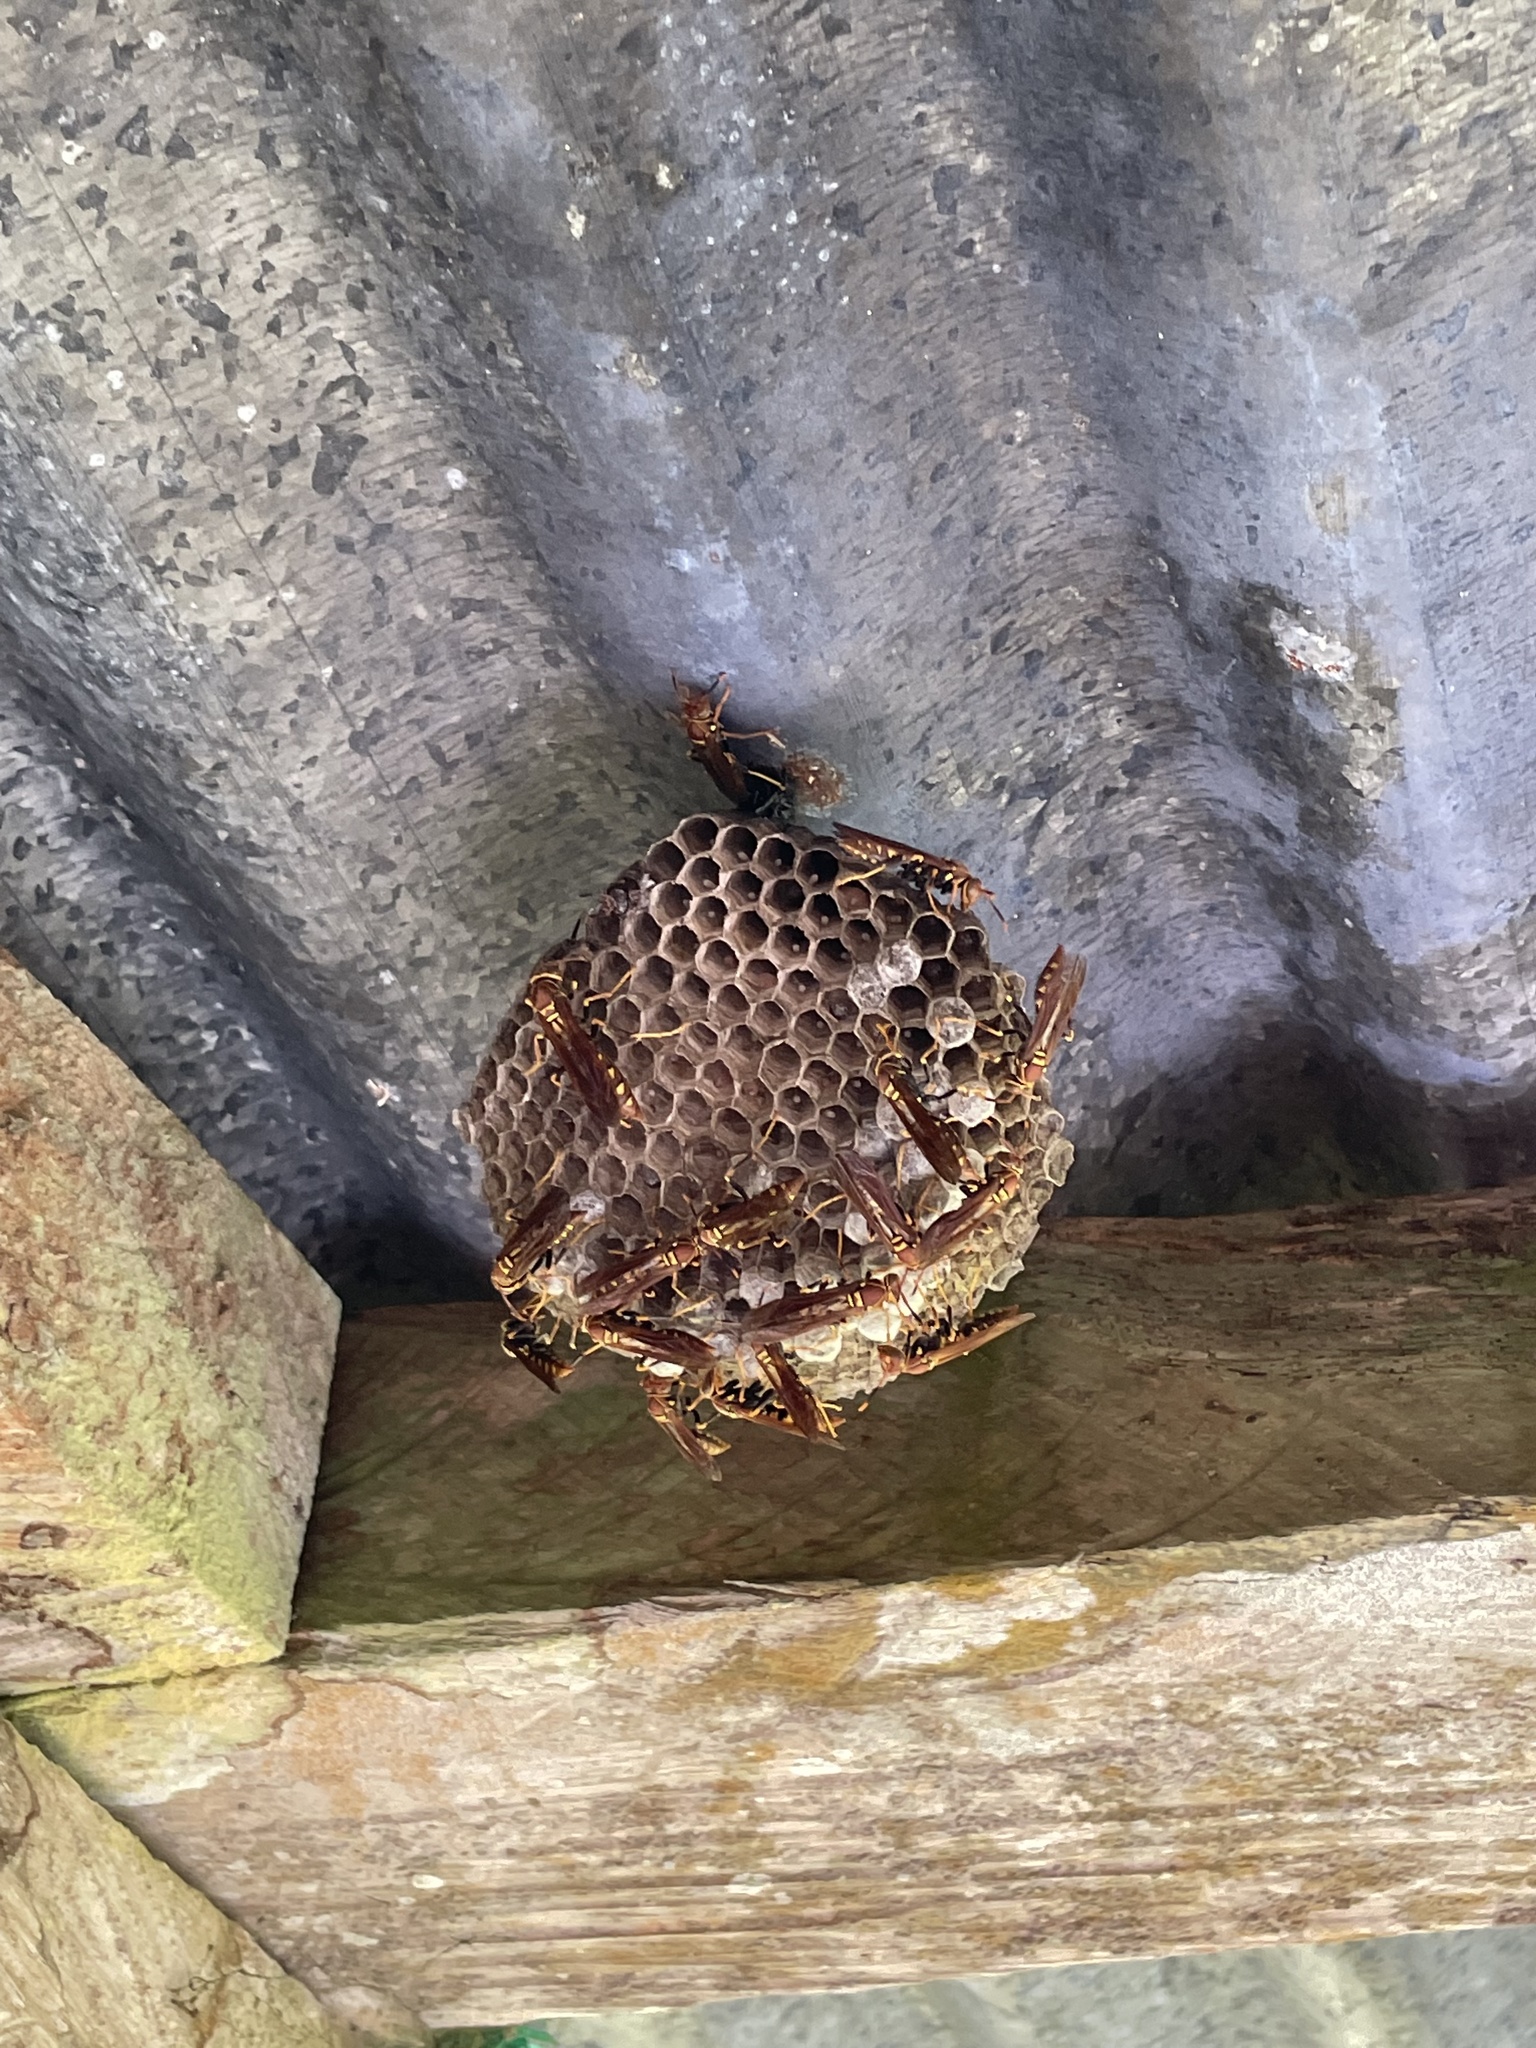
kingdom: Animalia
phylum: Arthropoda
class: Insecta
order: Hymenoptera
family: Eumenidae
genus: Polistes
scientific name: Polistes versicolor
